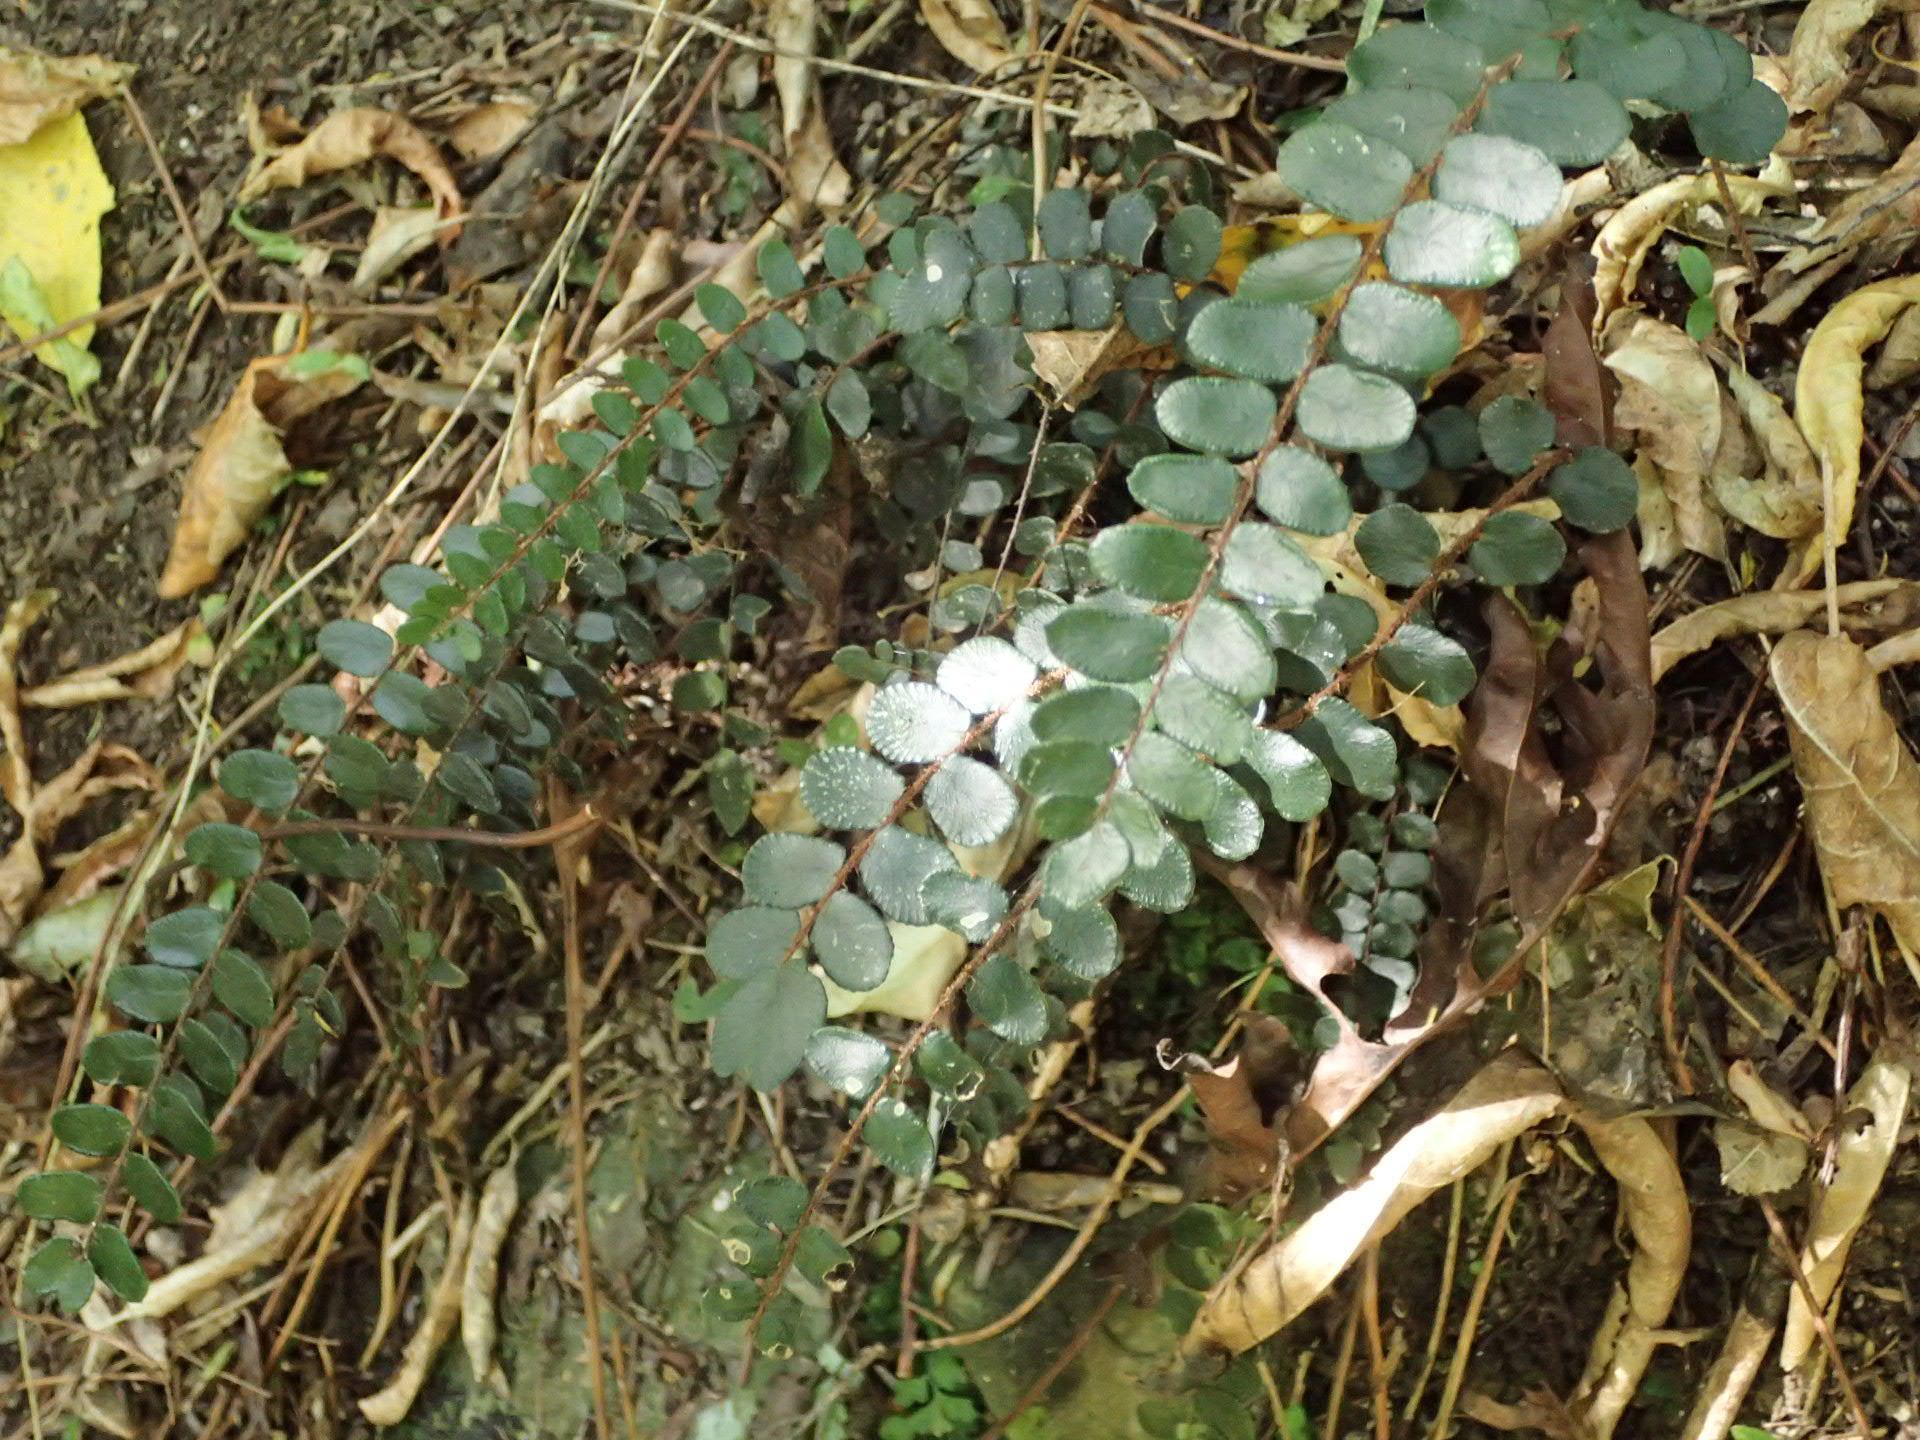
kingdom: Plantae
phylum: Tracheophyta
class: Polypodiopsida
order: Polypodiales
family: Pteridaceae
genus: Pellaea
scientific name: Pellaea rotundifolia
